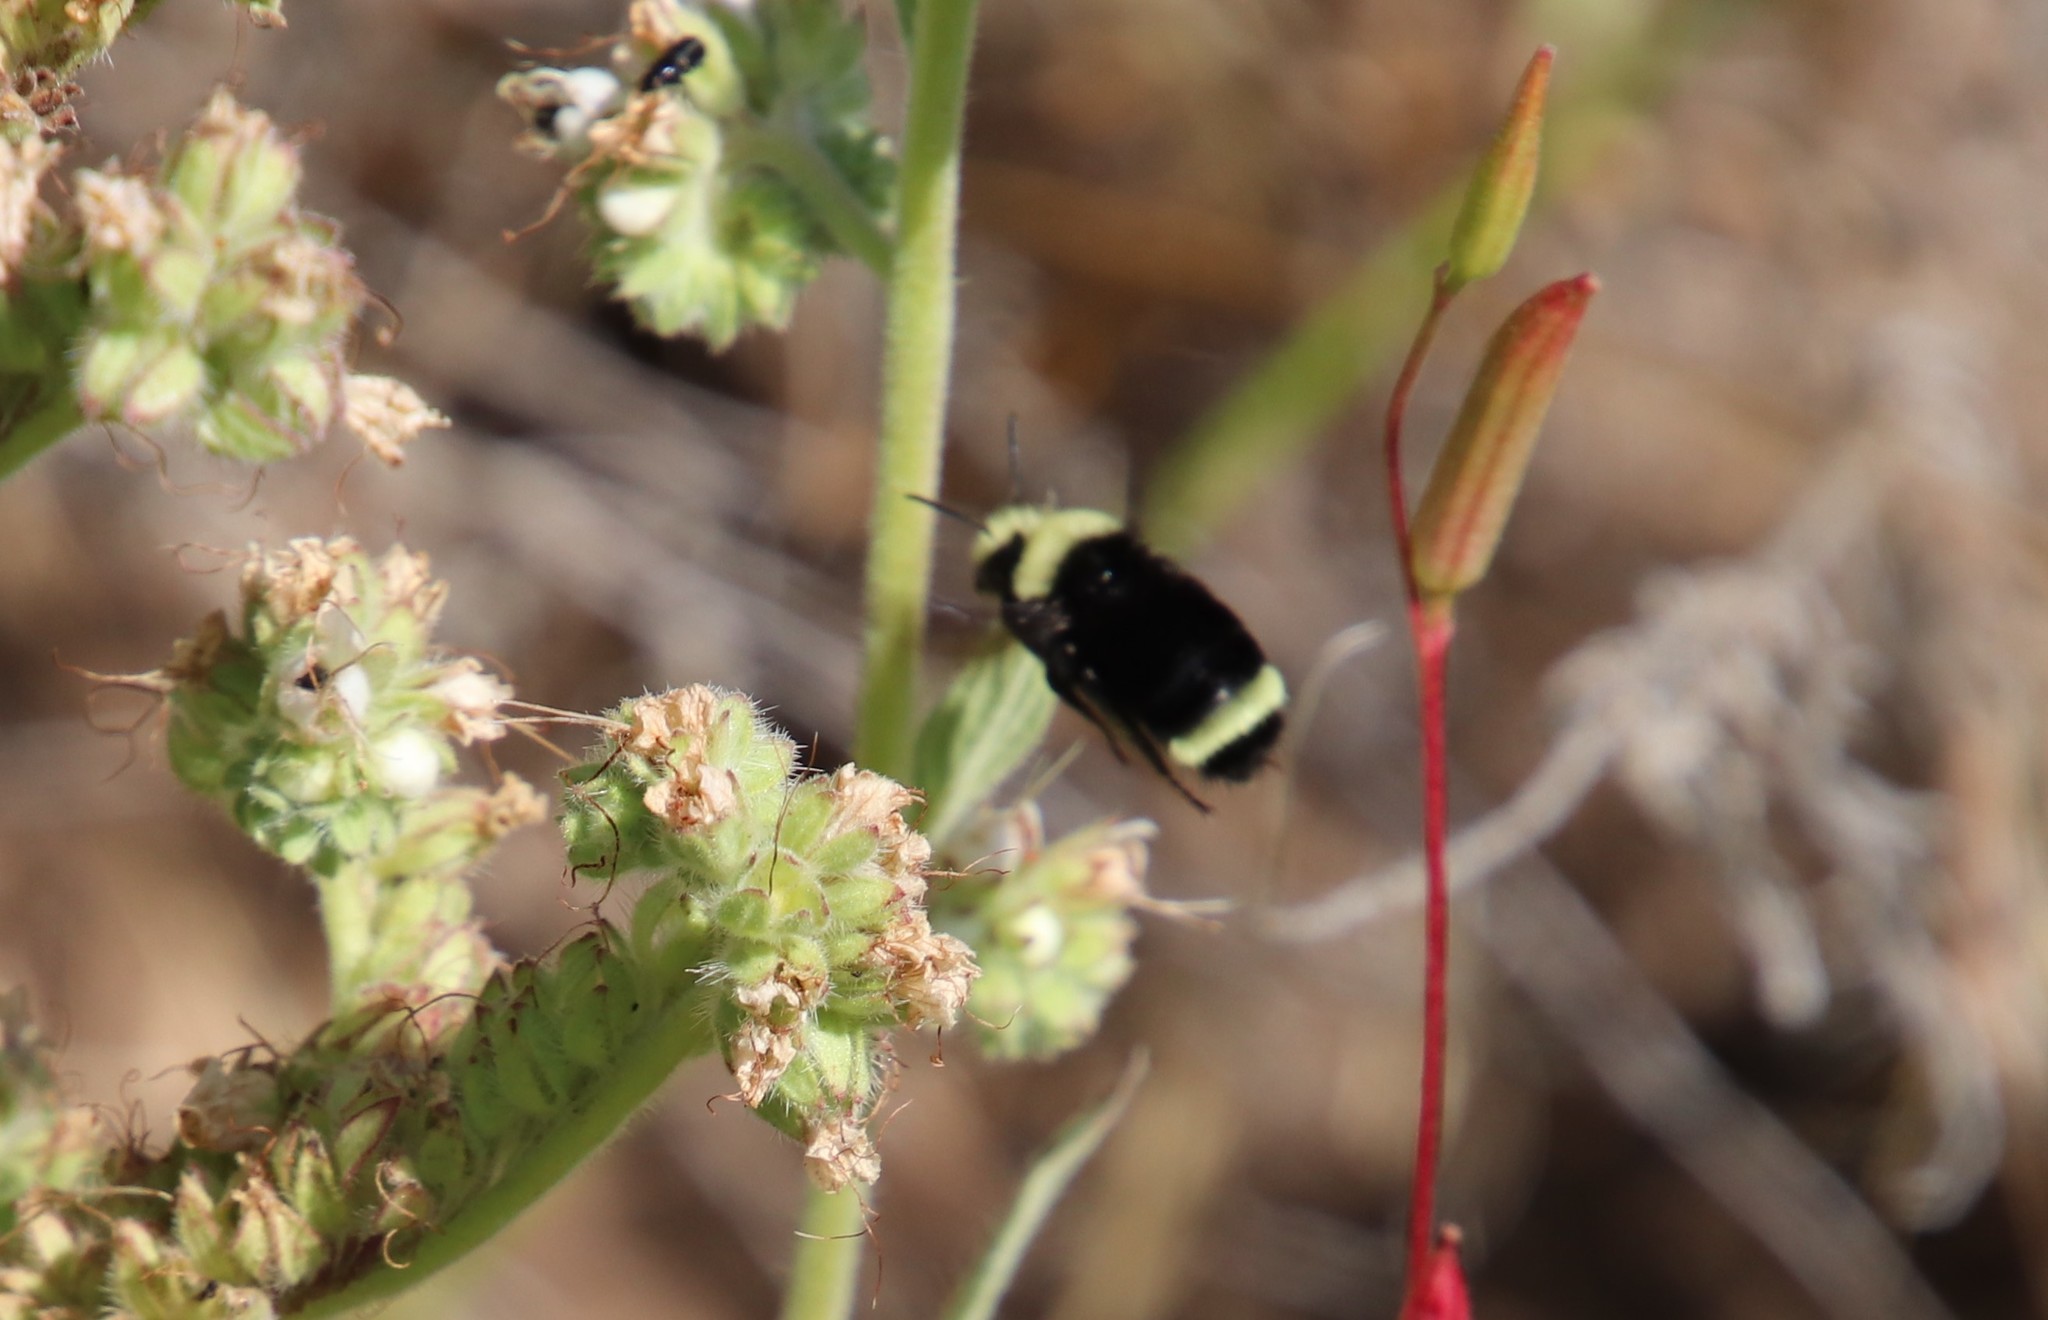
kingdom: Animalia
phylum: Arthropoda
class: Insecta
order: Hymenoptera
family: Apidae
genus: Bombus
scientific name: Bombus vosnesenskii
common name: Vosnesensky bumble bee
